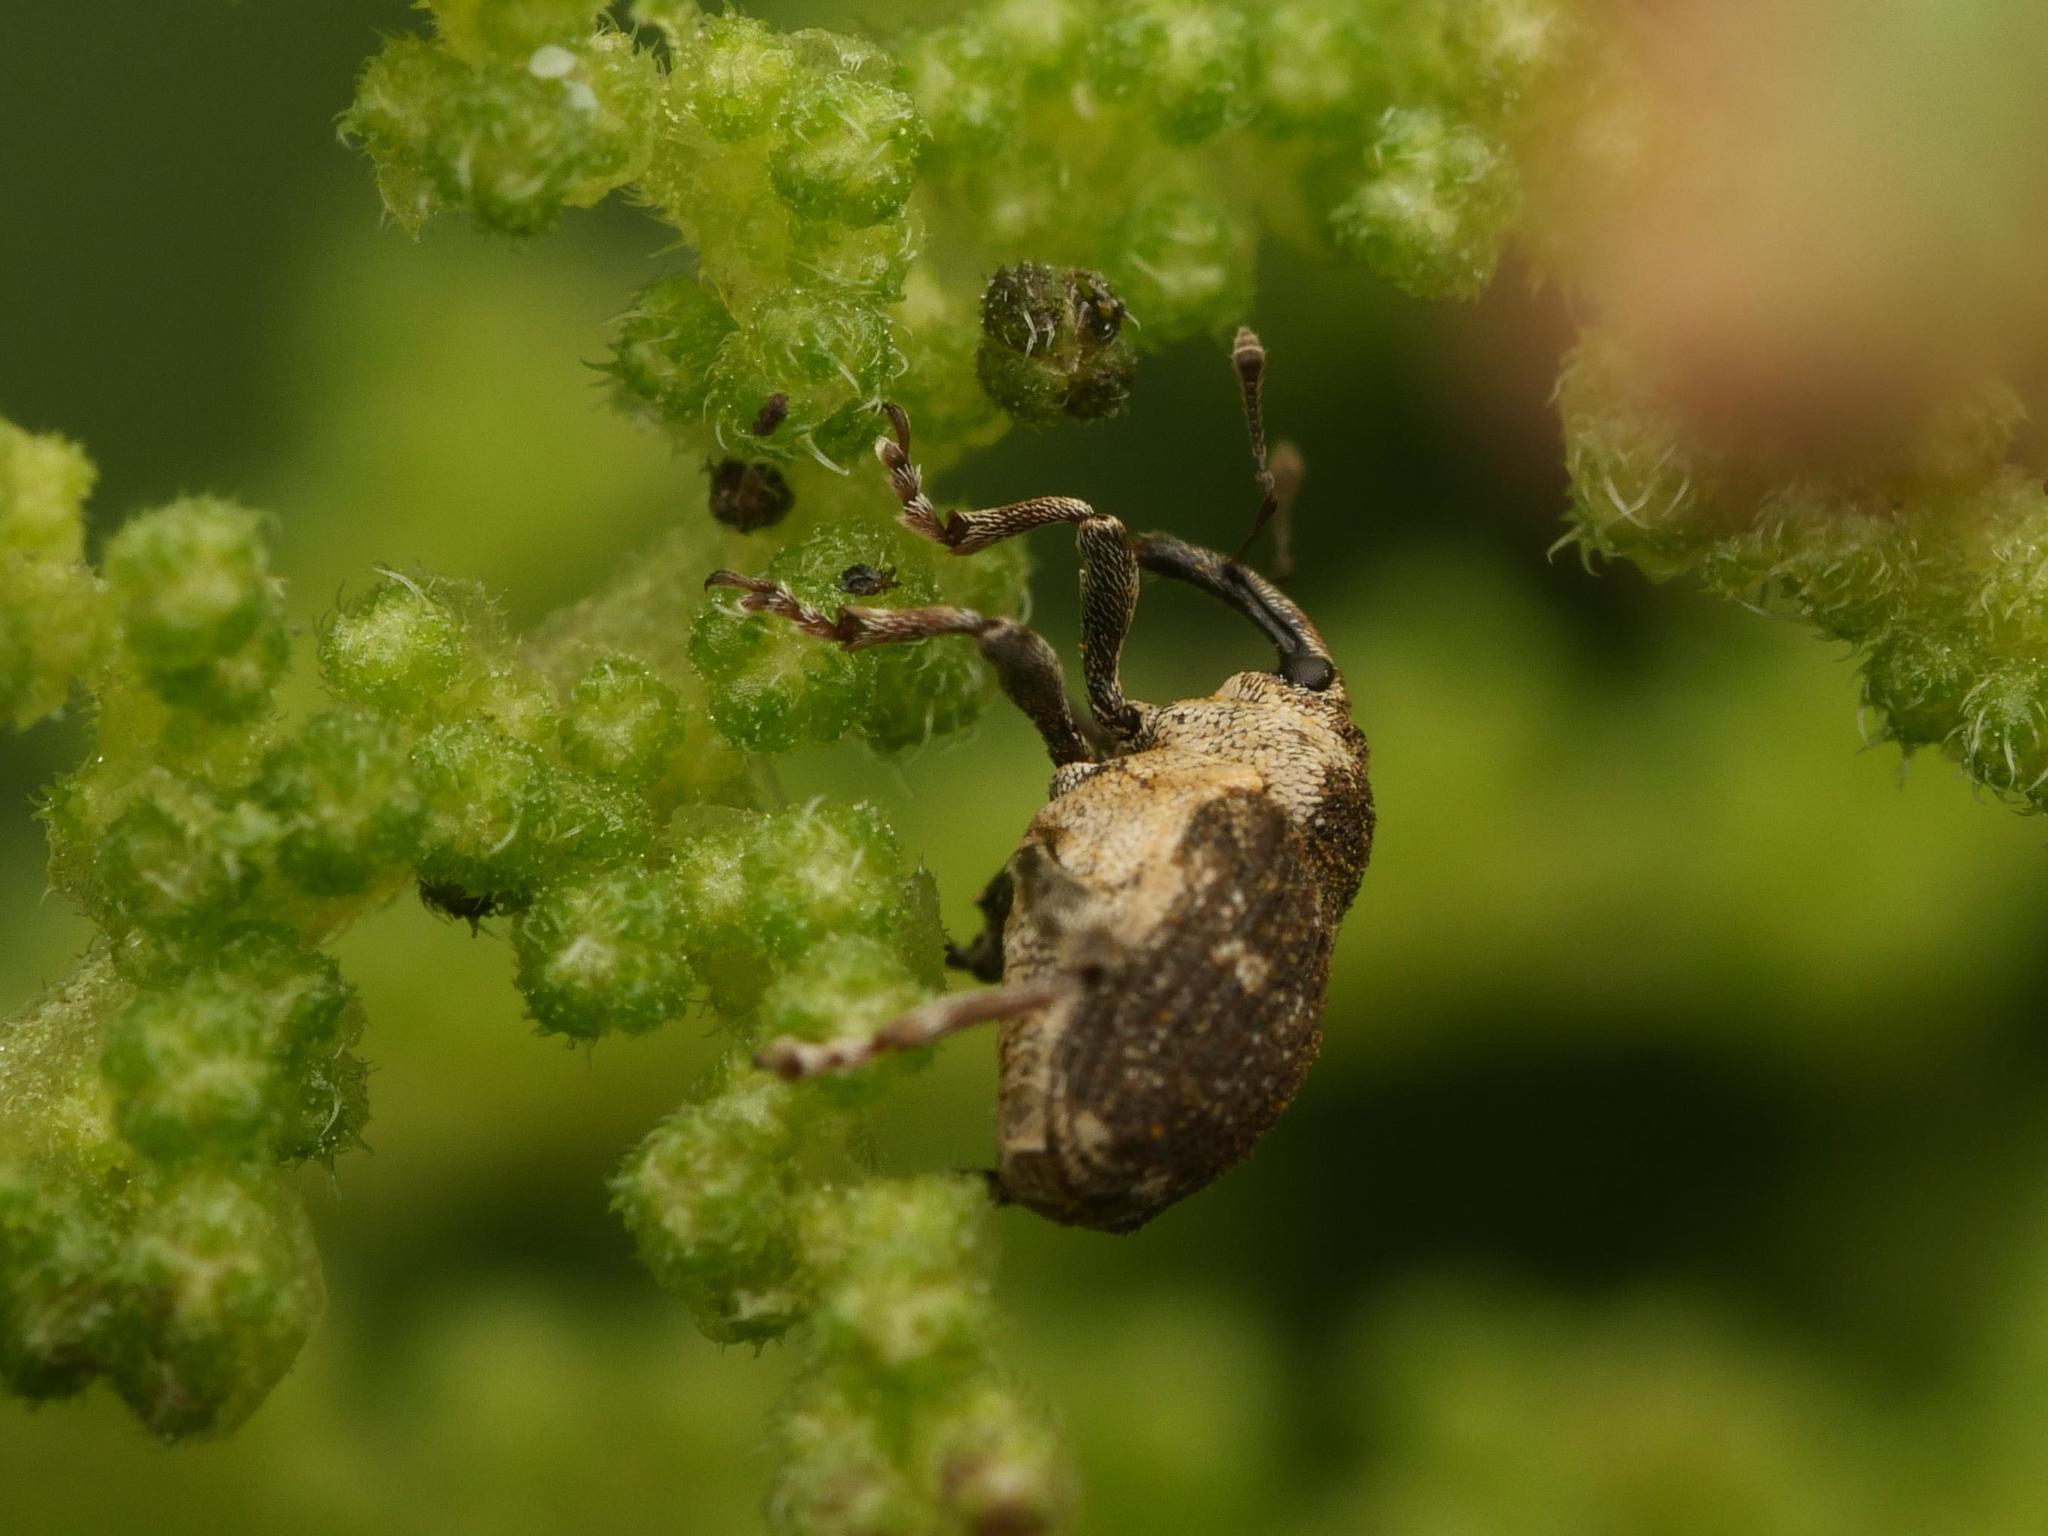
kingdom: Animalia
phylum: Arthropoda
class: Insecta
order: Coleoptera
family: Curculionidae
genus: Nedyus
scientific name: Nedyus quadrimaculatus
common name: Small nettle weevil
